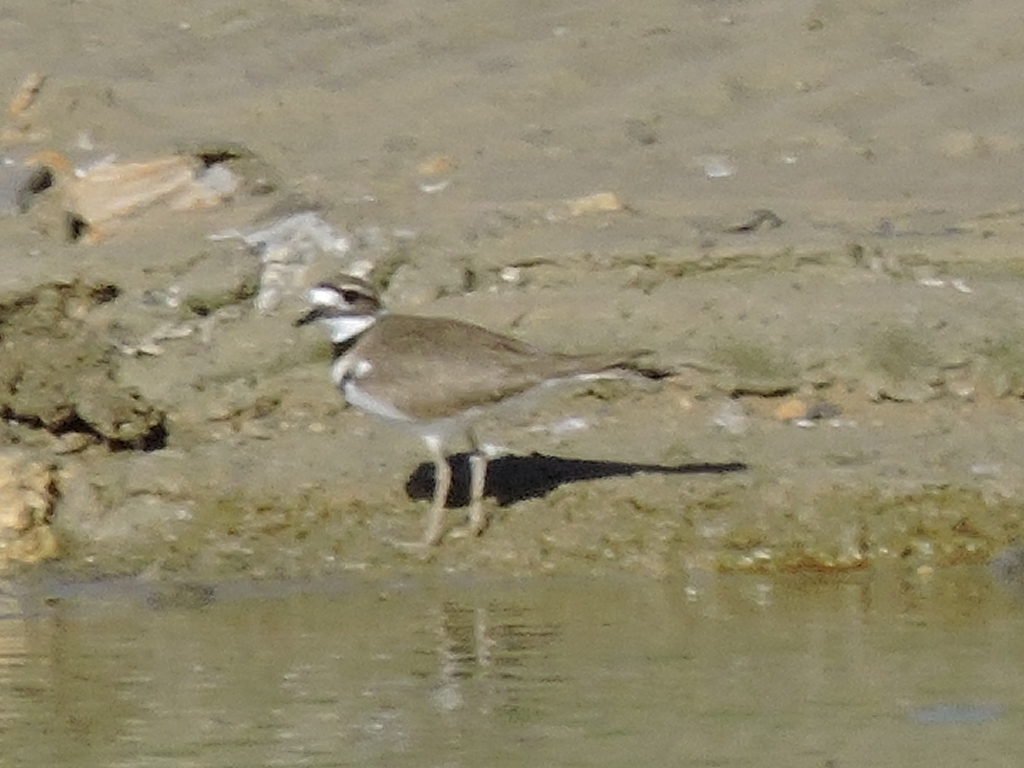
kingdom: Animalia
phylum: Chordata
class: Aves
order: Charadriiformes
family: Charadriidae
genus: Charadrius
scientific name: Charadrius vociferus
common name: Killdeer
